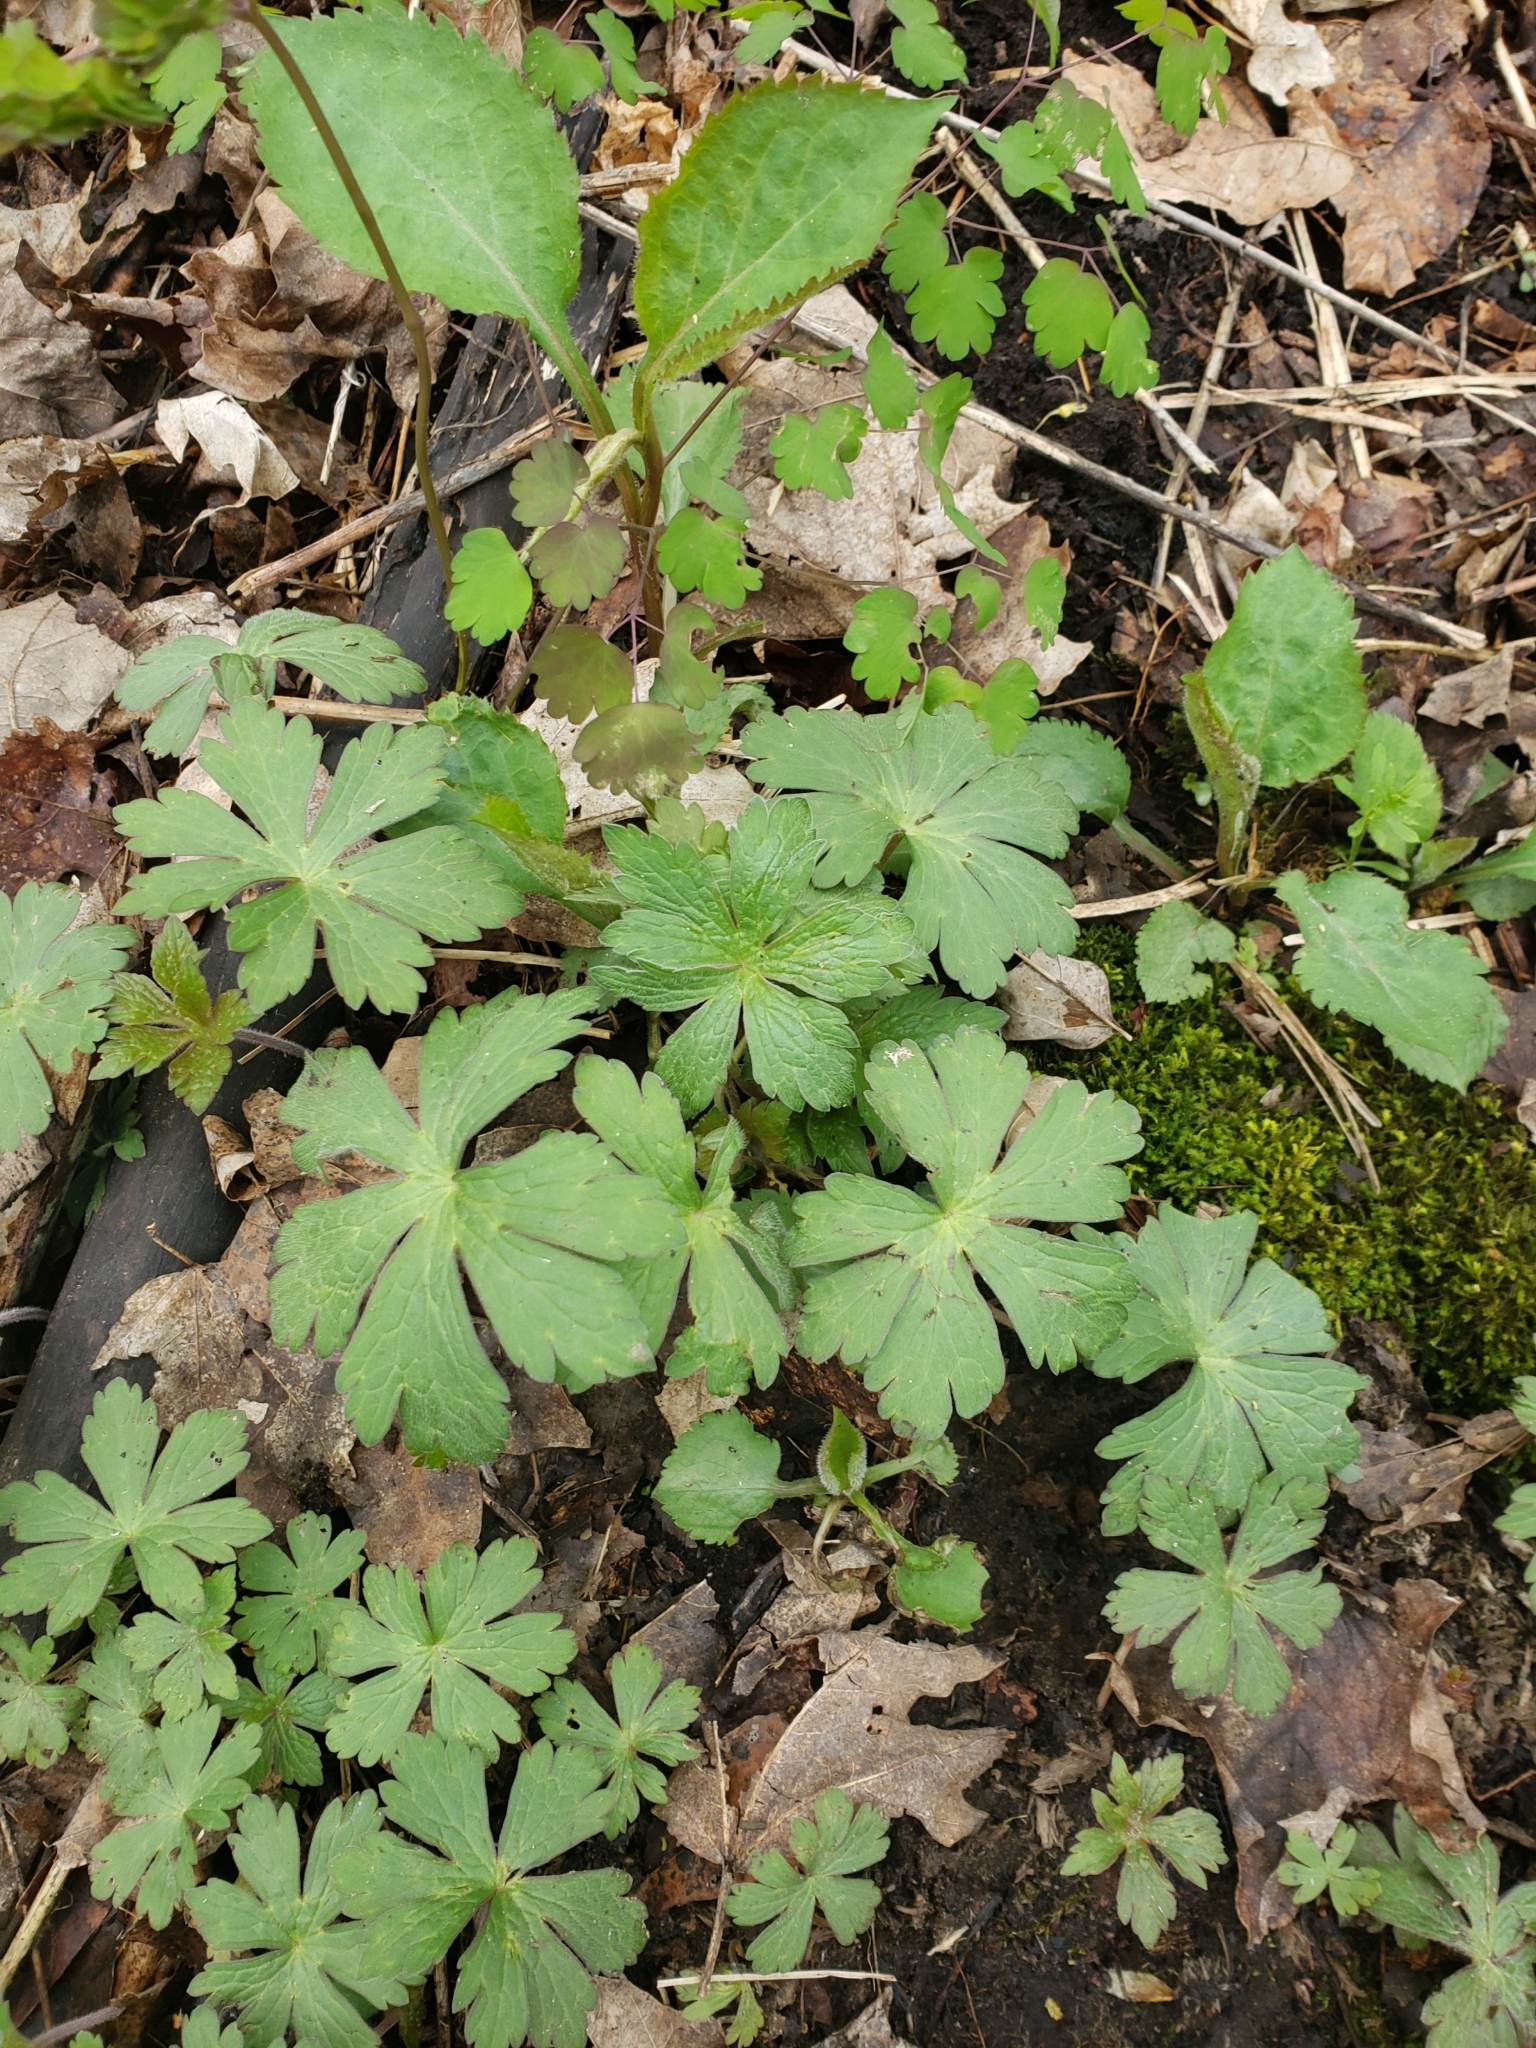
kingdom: Plantae
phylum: Tracheophyta
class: Magnoliopsida
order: Geraniales
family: Geraniaceae
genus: Geranium
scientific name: Geranium maculatum
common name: Spotted geranium
